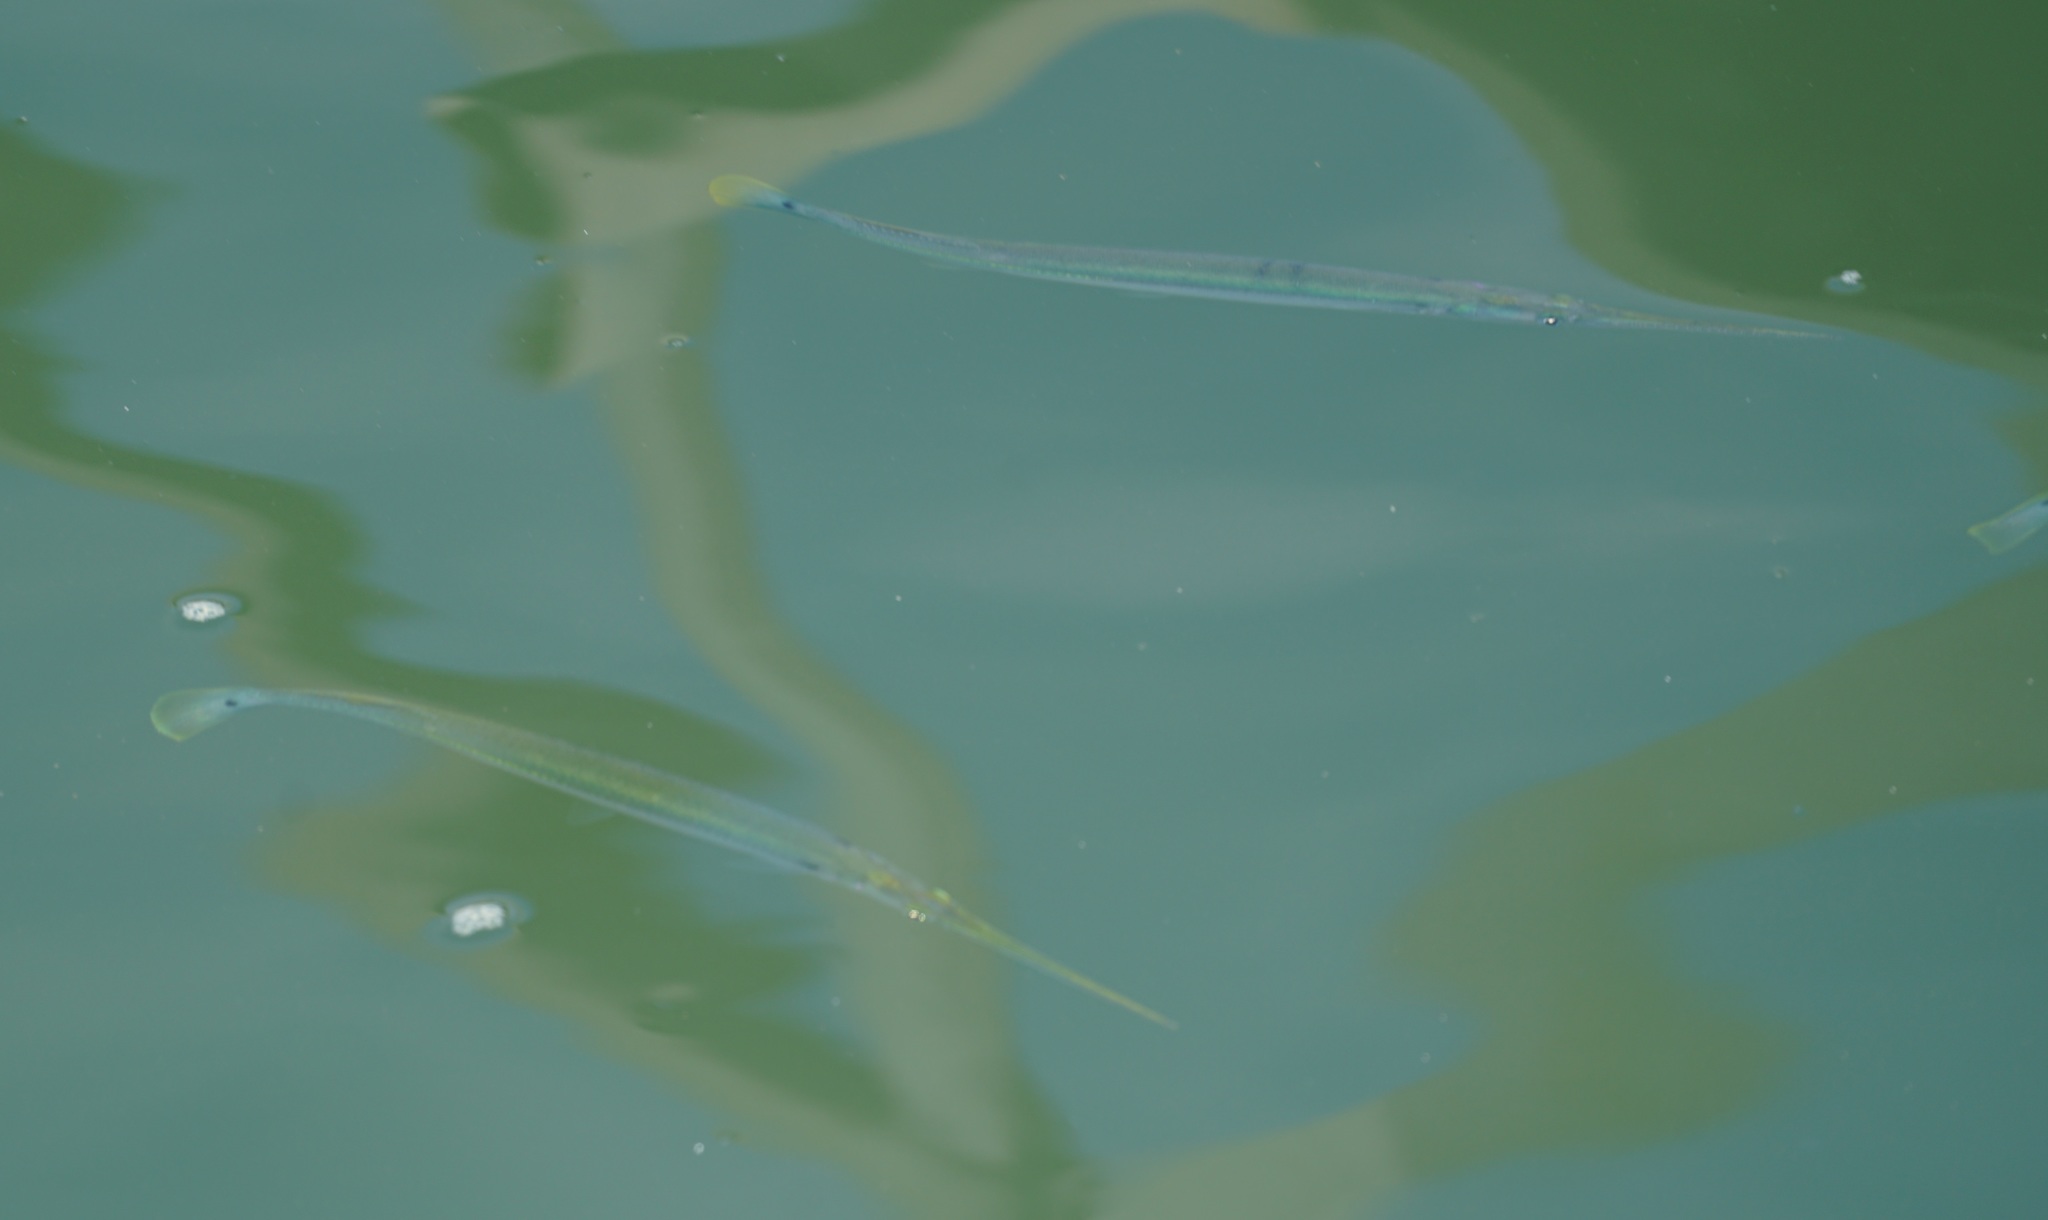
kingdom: Animalia
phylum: Chordata
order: Beloniformes
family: Belonidae
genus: Strongylura
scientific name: Strongylura strongylura
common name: Spottail needlefish
